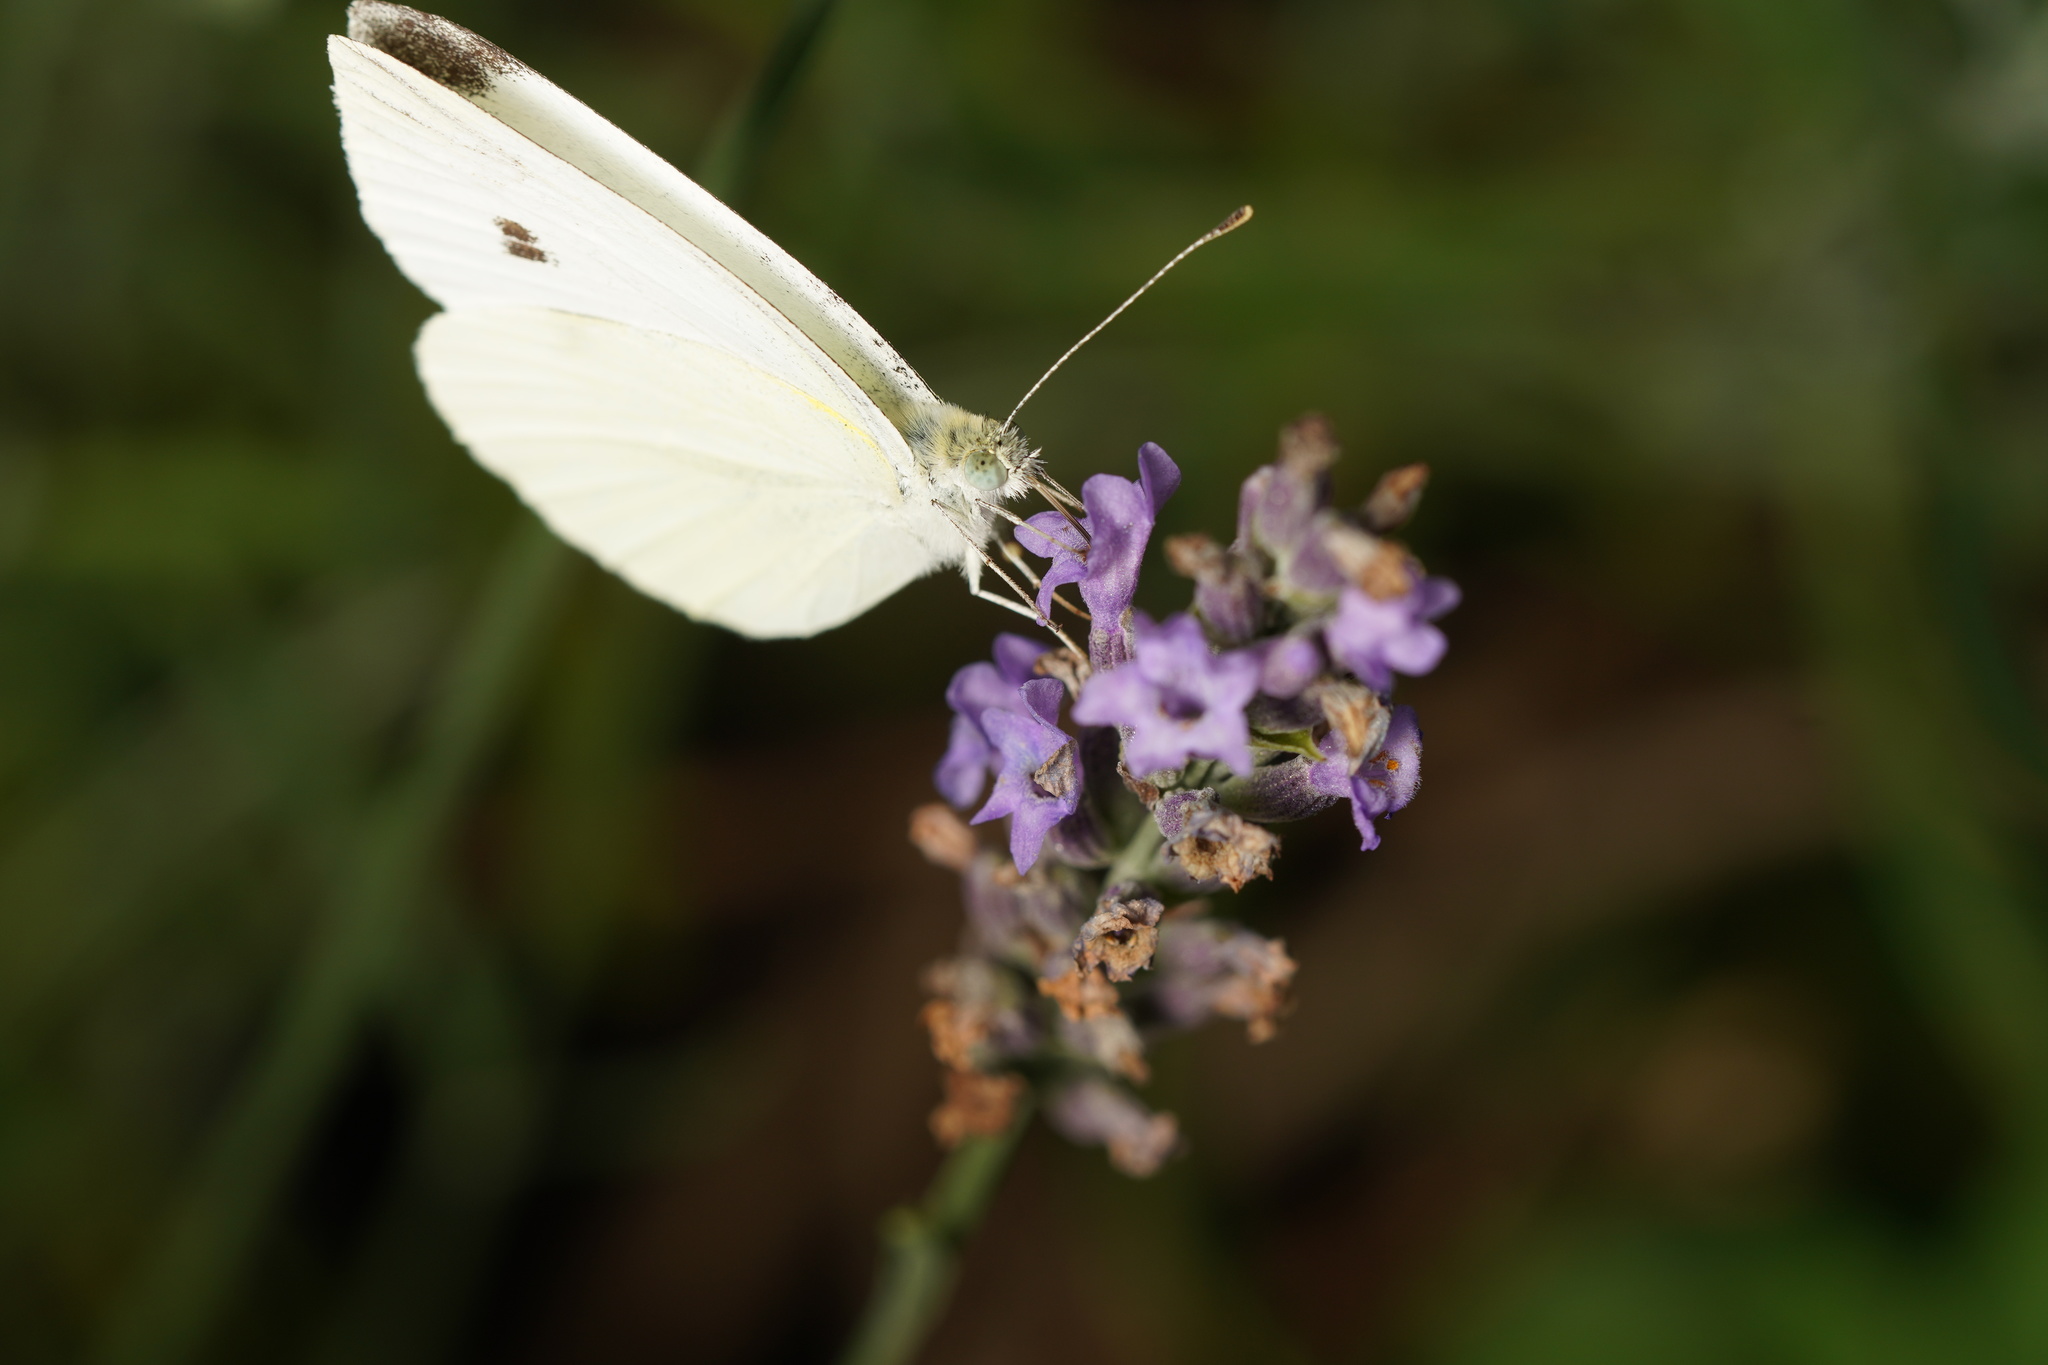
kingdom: Animalia
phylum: Arthropoda
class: Insecta
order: Lepidoptera
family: Pieridae
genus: Pieris
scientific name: Pieris rapae
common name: Small white
